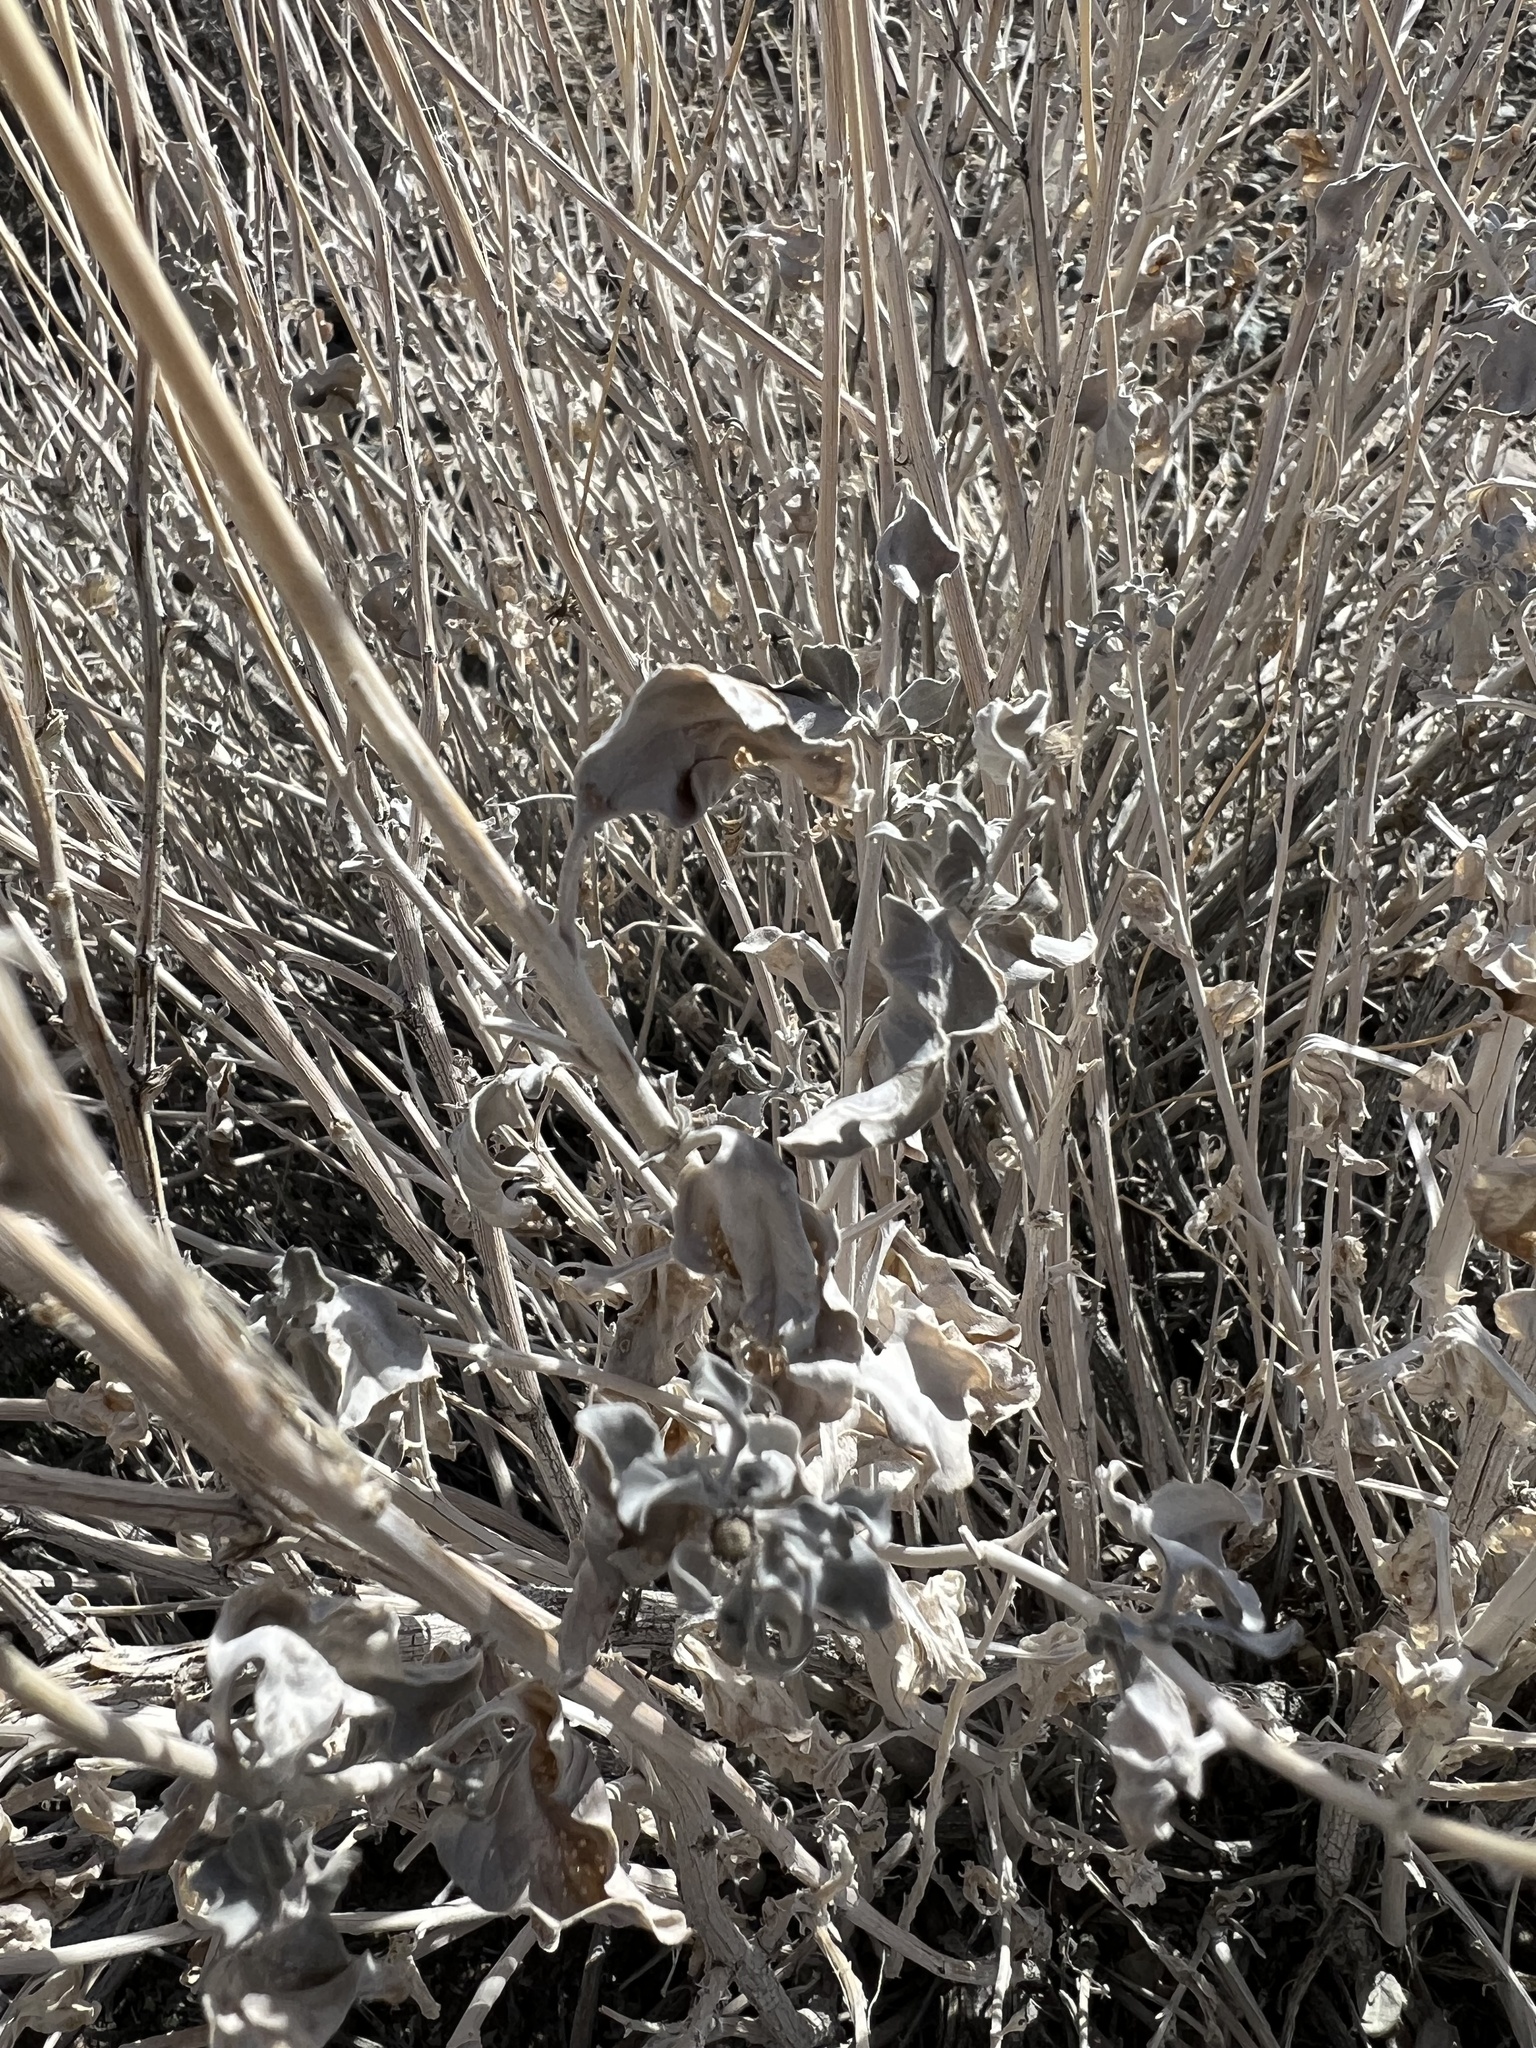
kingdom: Plantae
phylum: Tracheophyta
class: Magnoliopsida
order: Asterales
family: Asteraceae
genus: Encelia
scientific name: Encelia actoni
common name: Acton encelia
